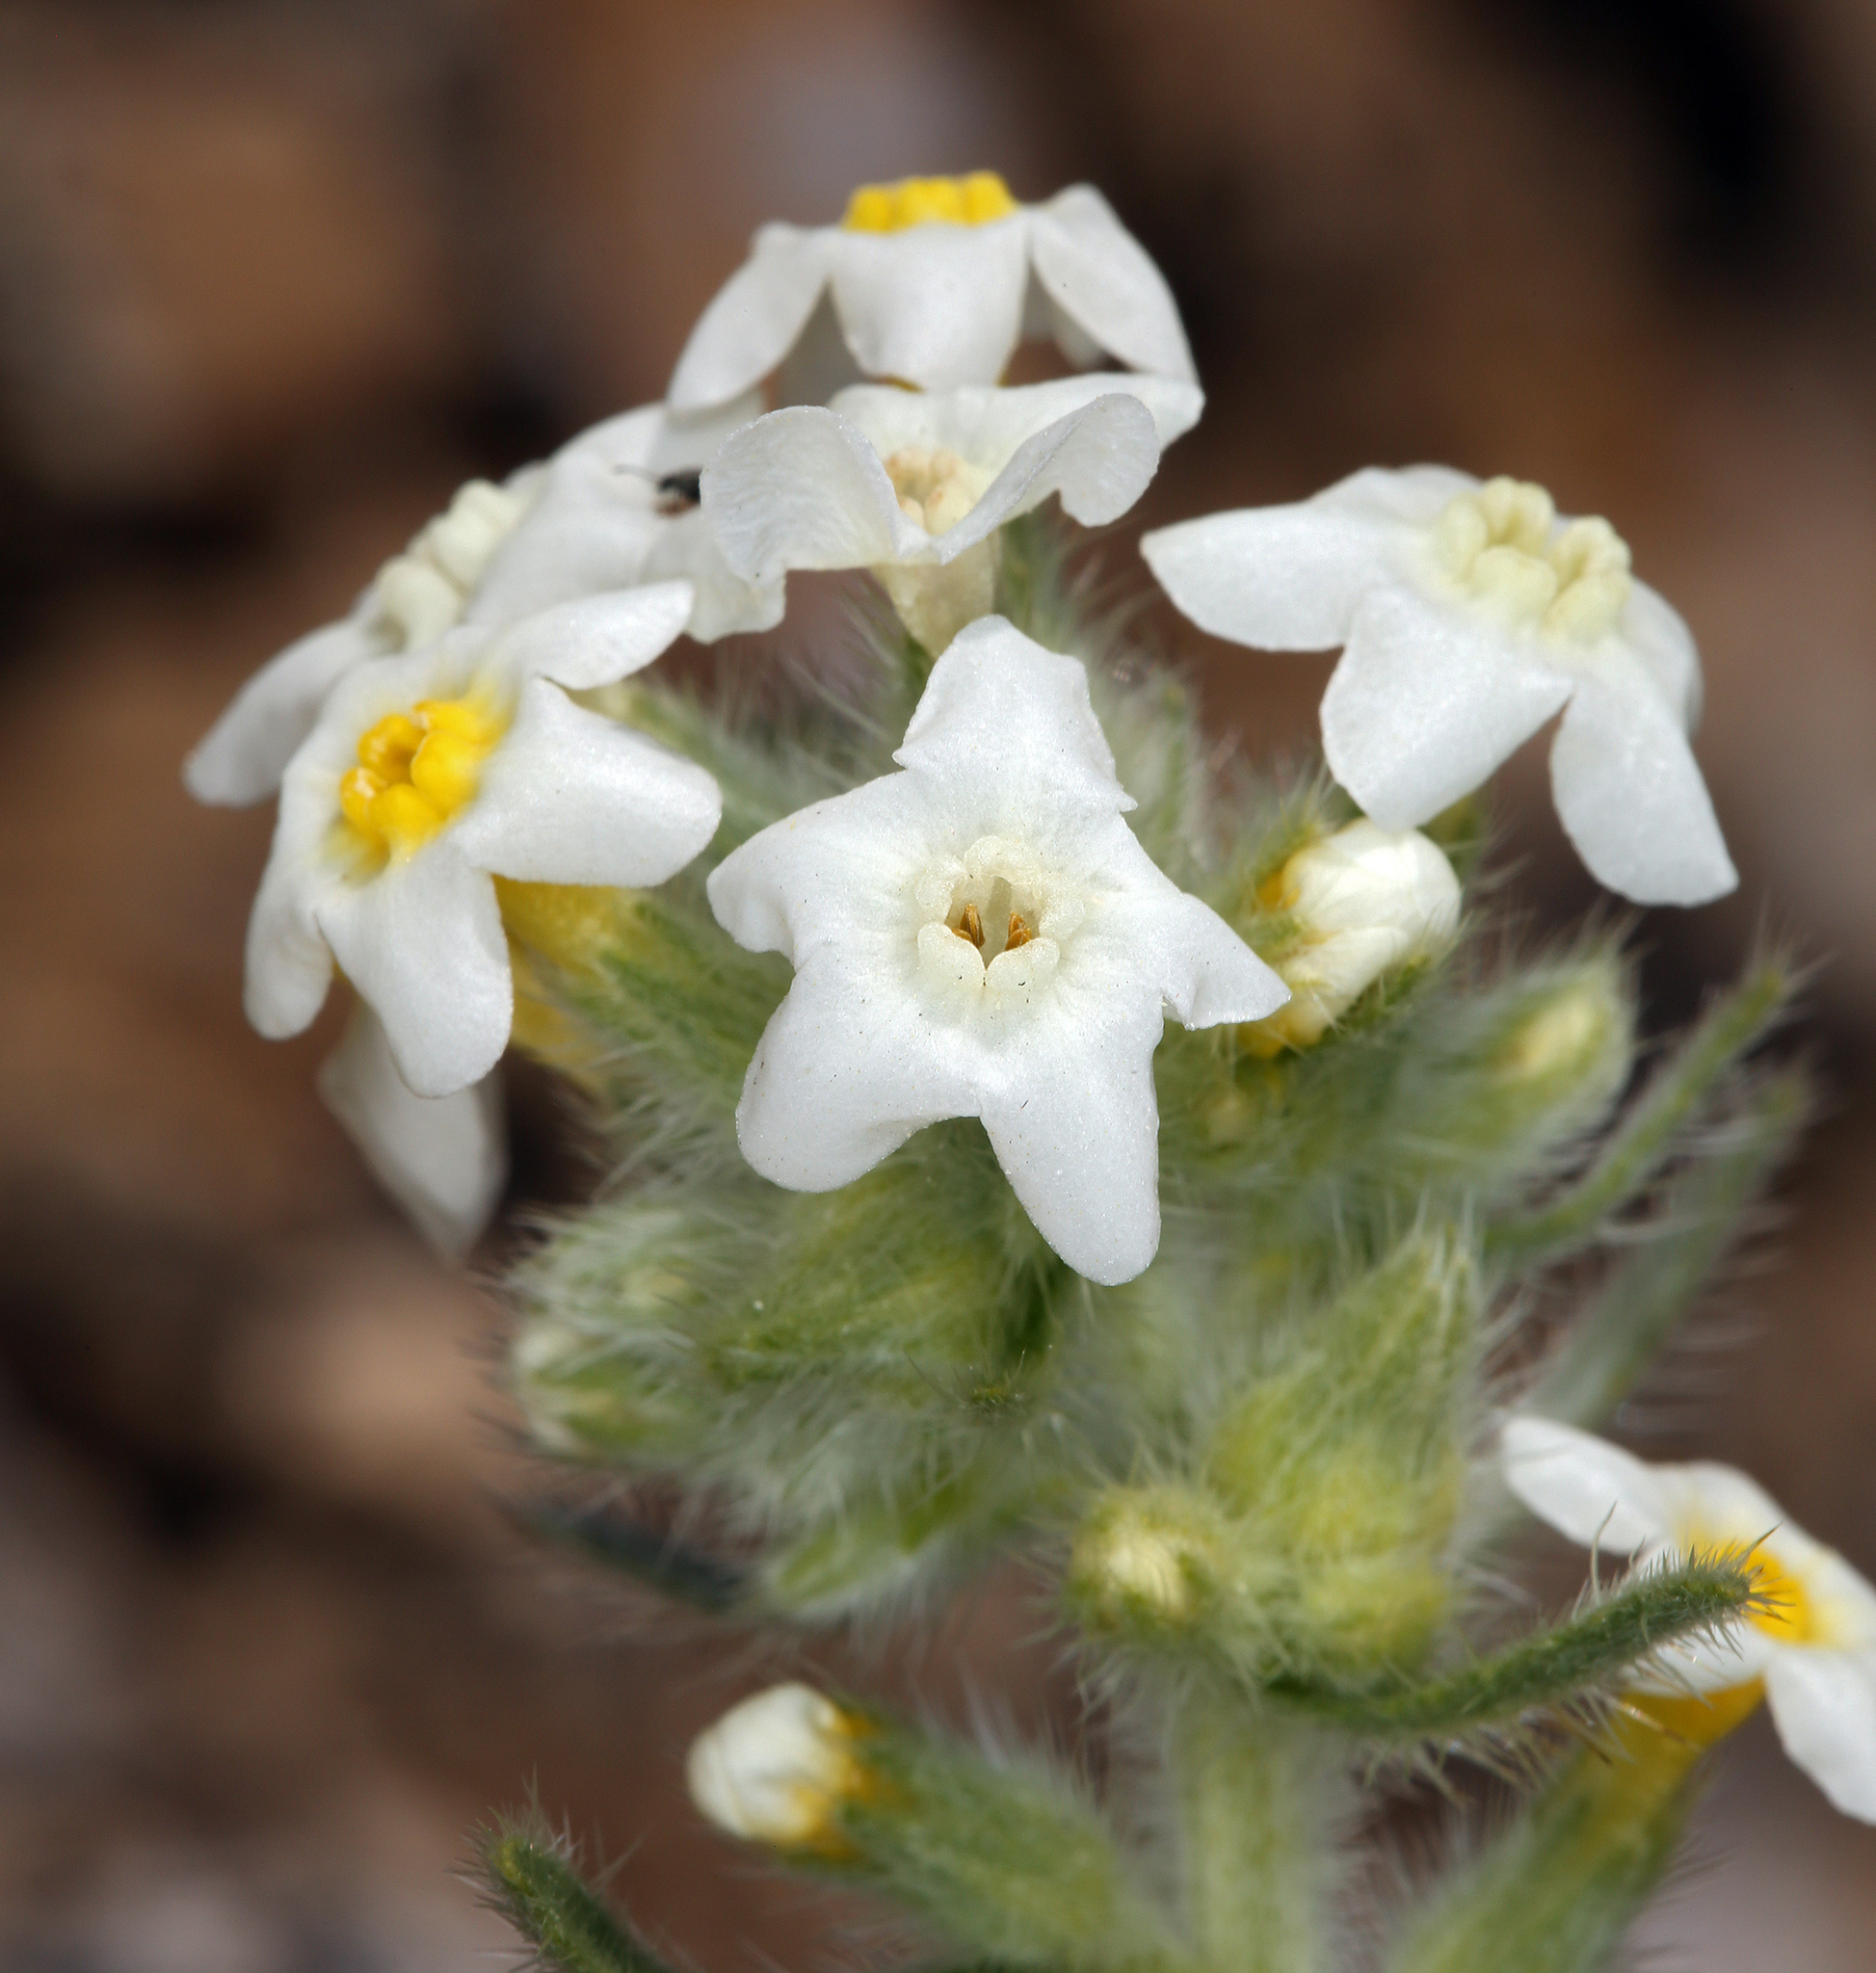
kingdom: Plantae
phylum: Tracheophyta
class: Magnoliopsida
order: Boraginales
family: Boraginaceae
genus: Oreocarya
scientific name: Oreocarya flavoculata
